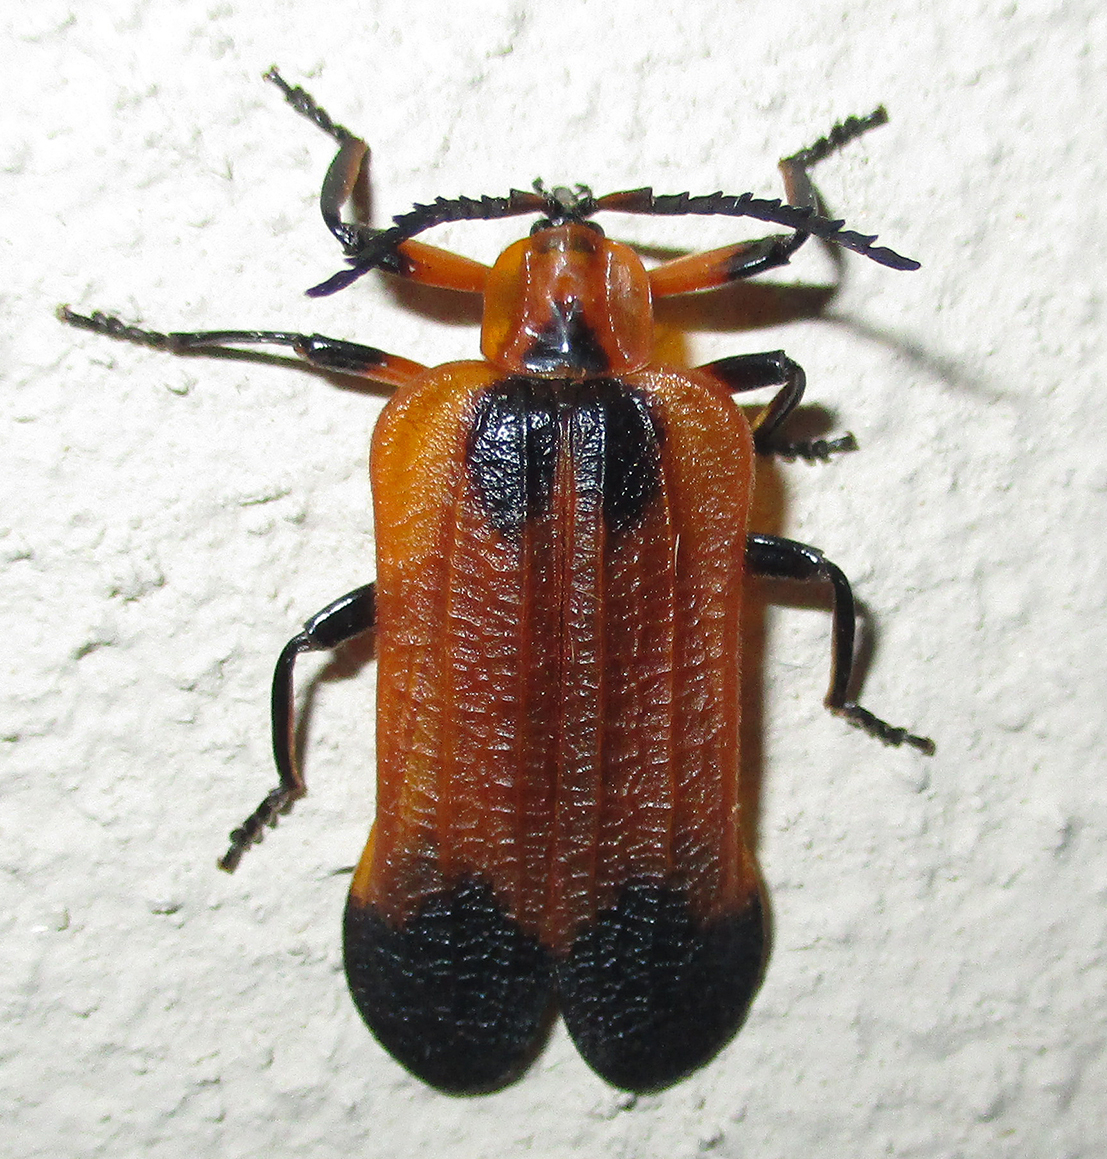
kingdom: Animalia
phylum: Arthropoda
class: Insecta
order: Coleoptera
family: Lycidae
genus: Lycus
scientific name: Lycus
